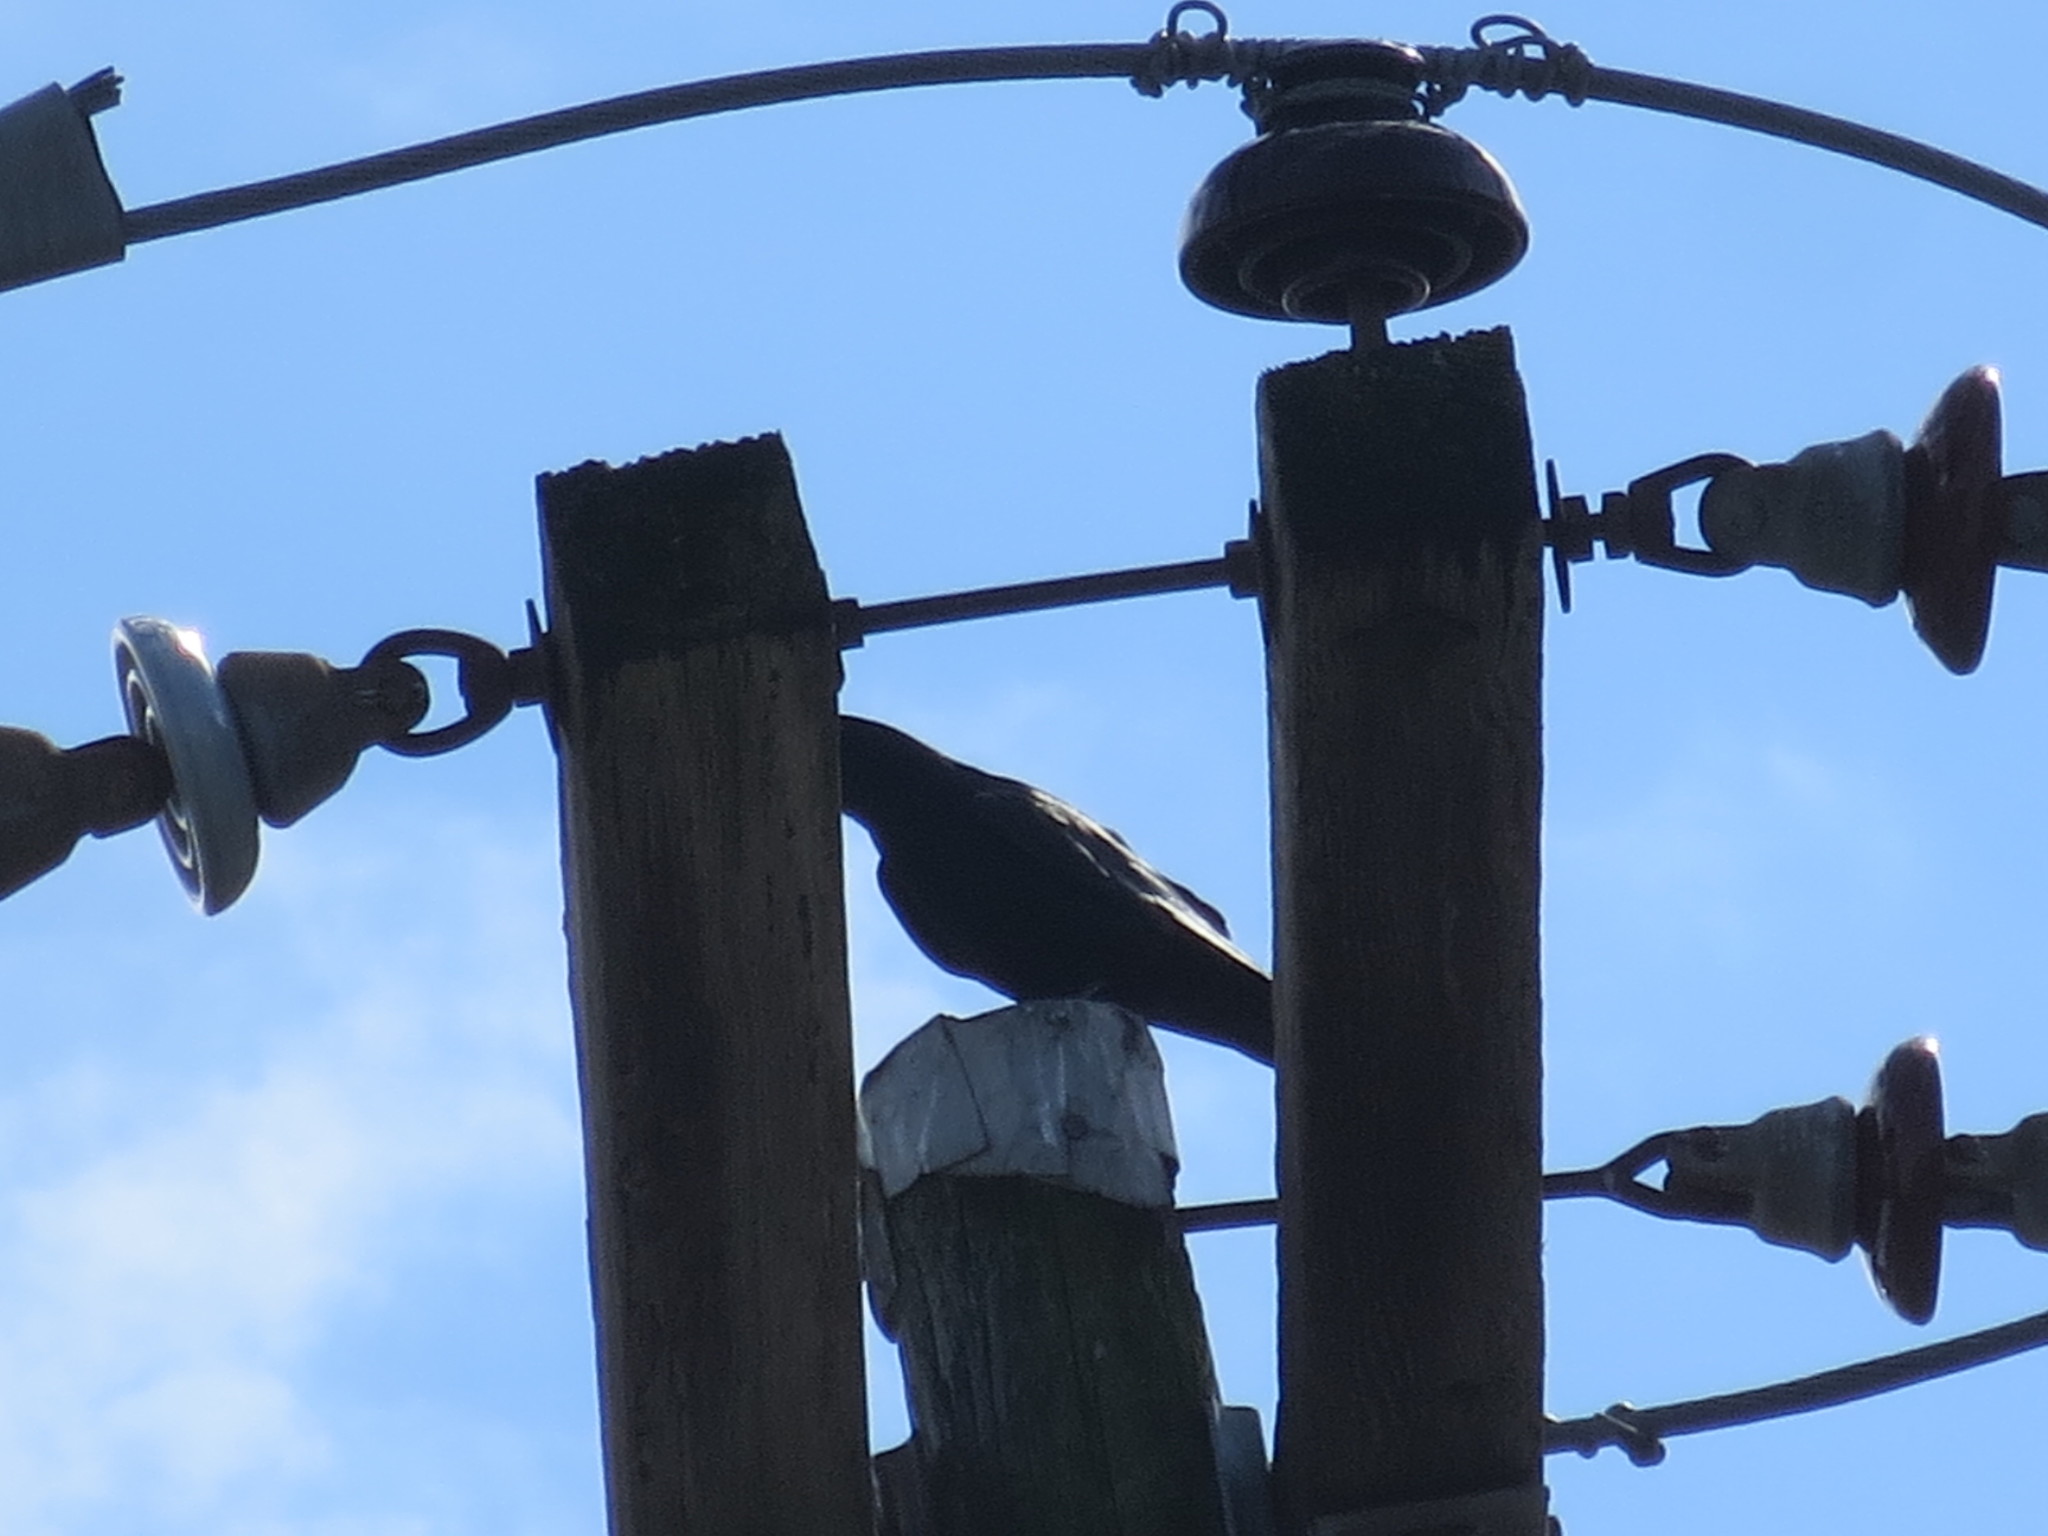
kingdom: Animalia
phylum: Chordata
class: Aves
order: Passeriformes
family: Corvidae
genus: Corvus
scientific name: Corvus ossifragus
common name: Fish crow
